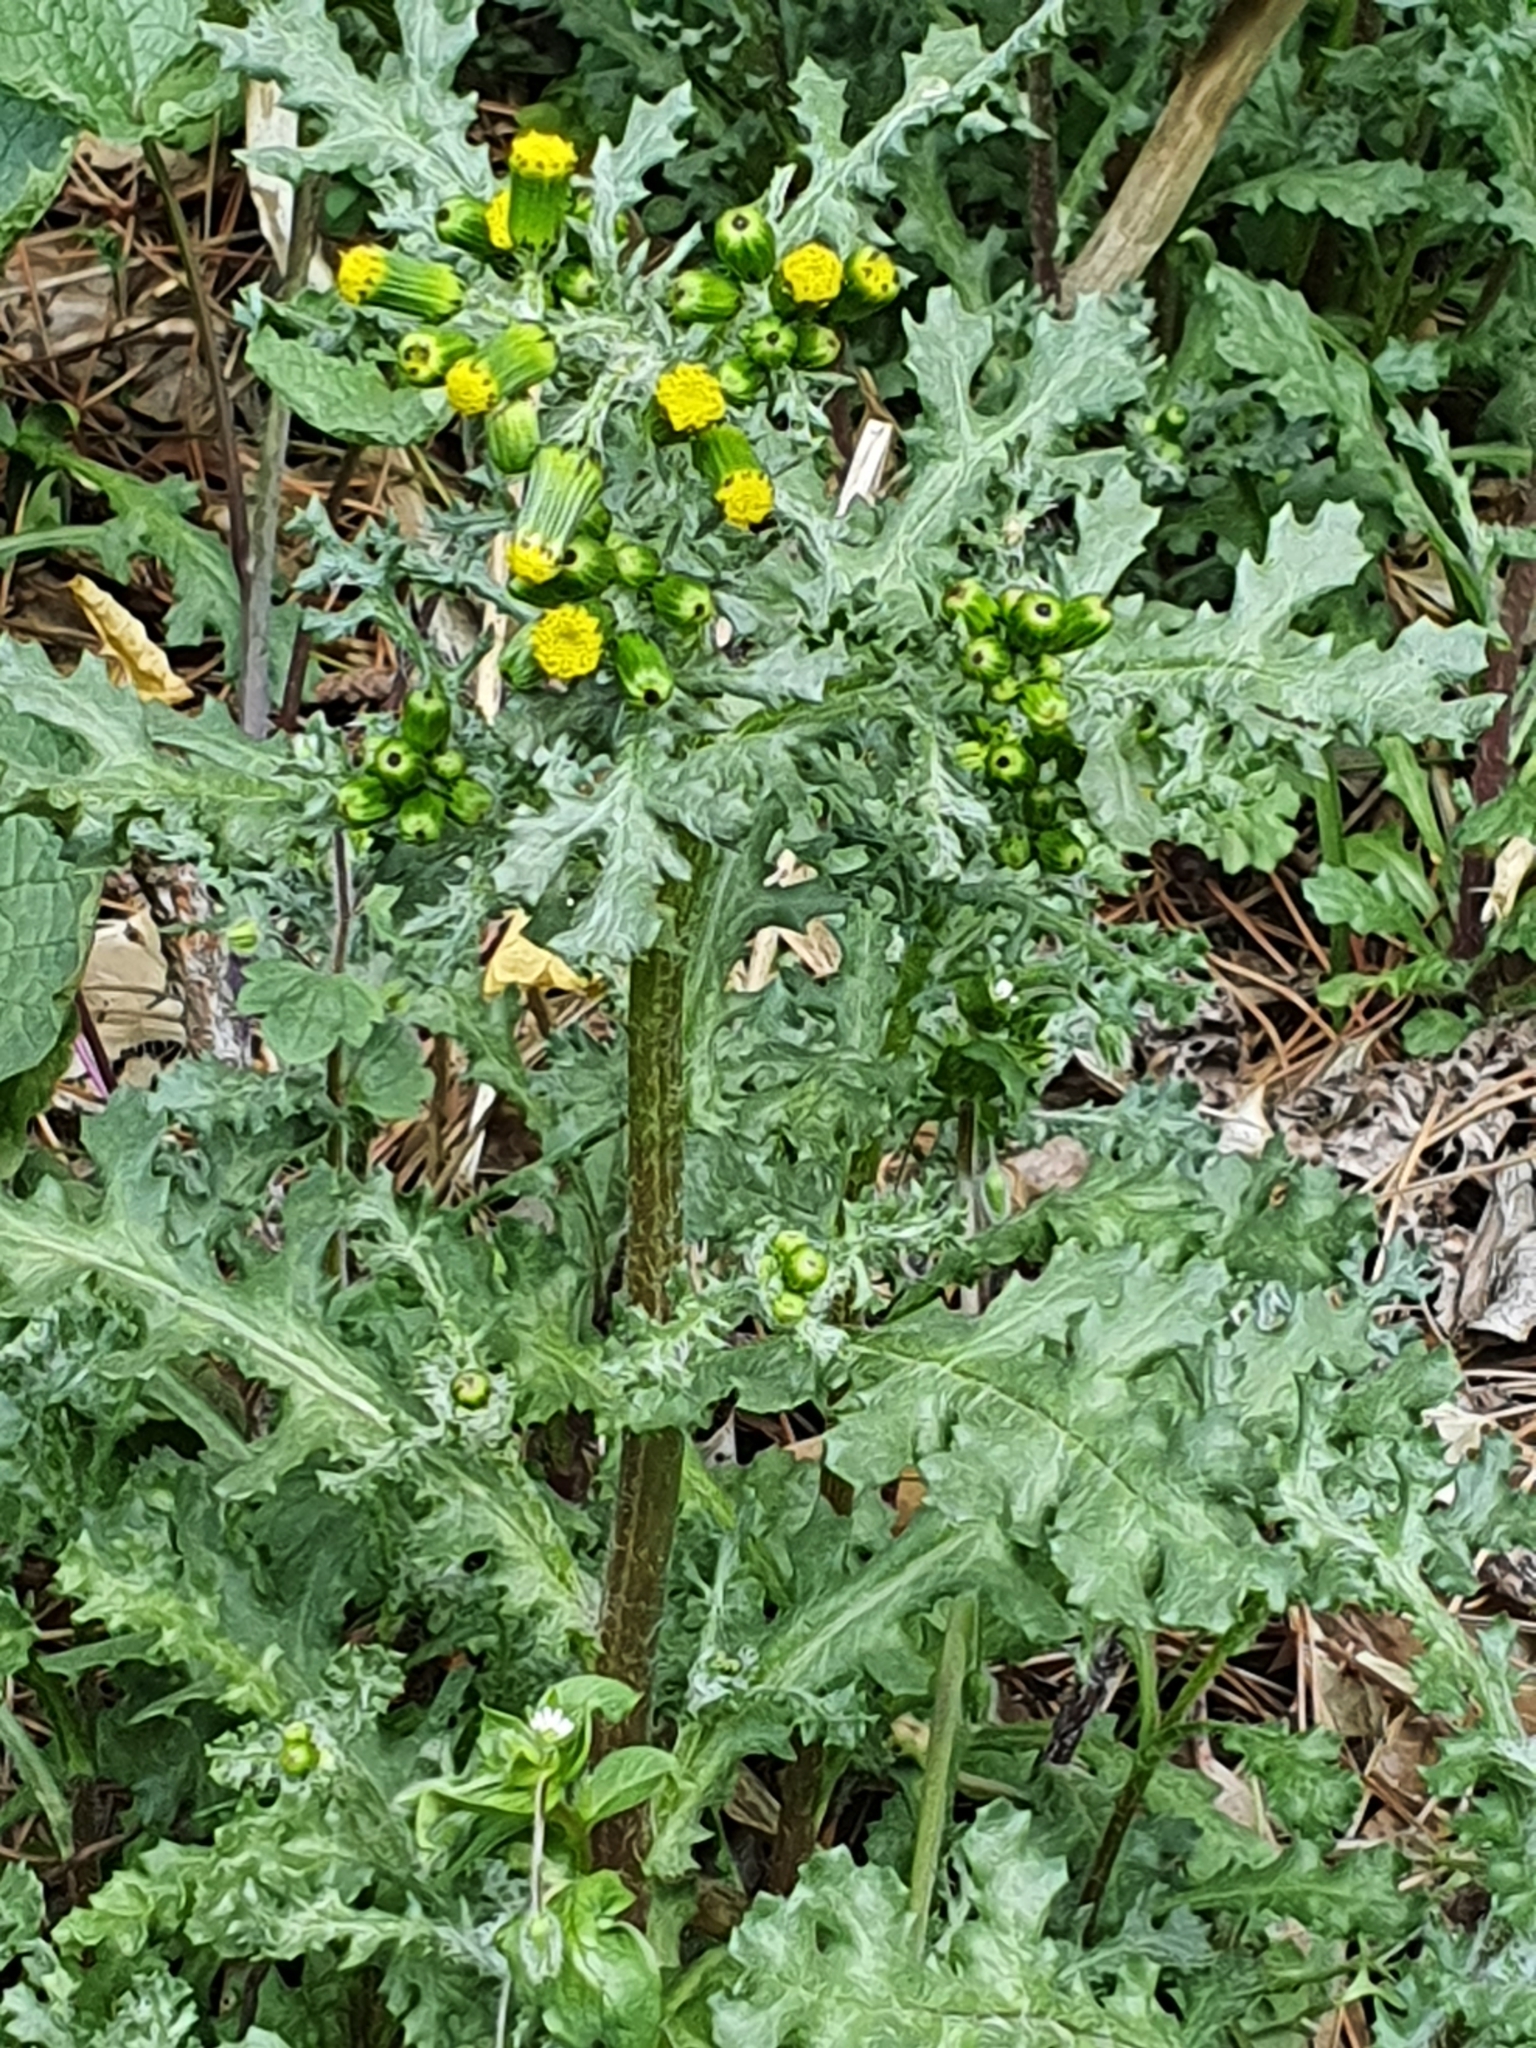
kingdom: Plantae
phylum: Tracheophyta
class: Magnoliopsida
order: Asterales
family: Asteraceae
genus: Senecio
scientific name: Senecio vulgaris
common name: Old-man-in-the-spring
